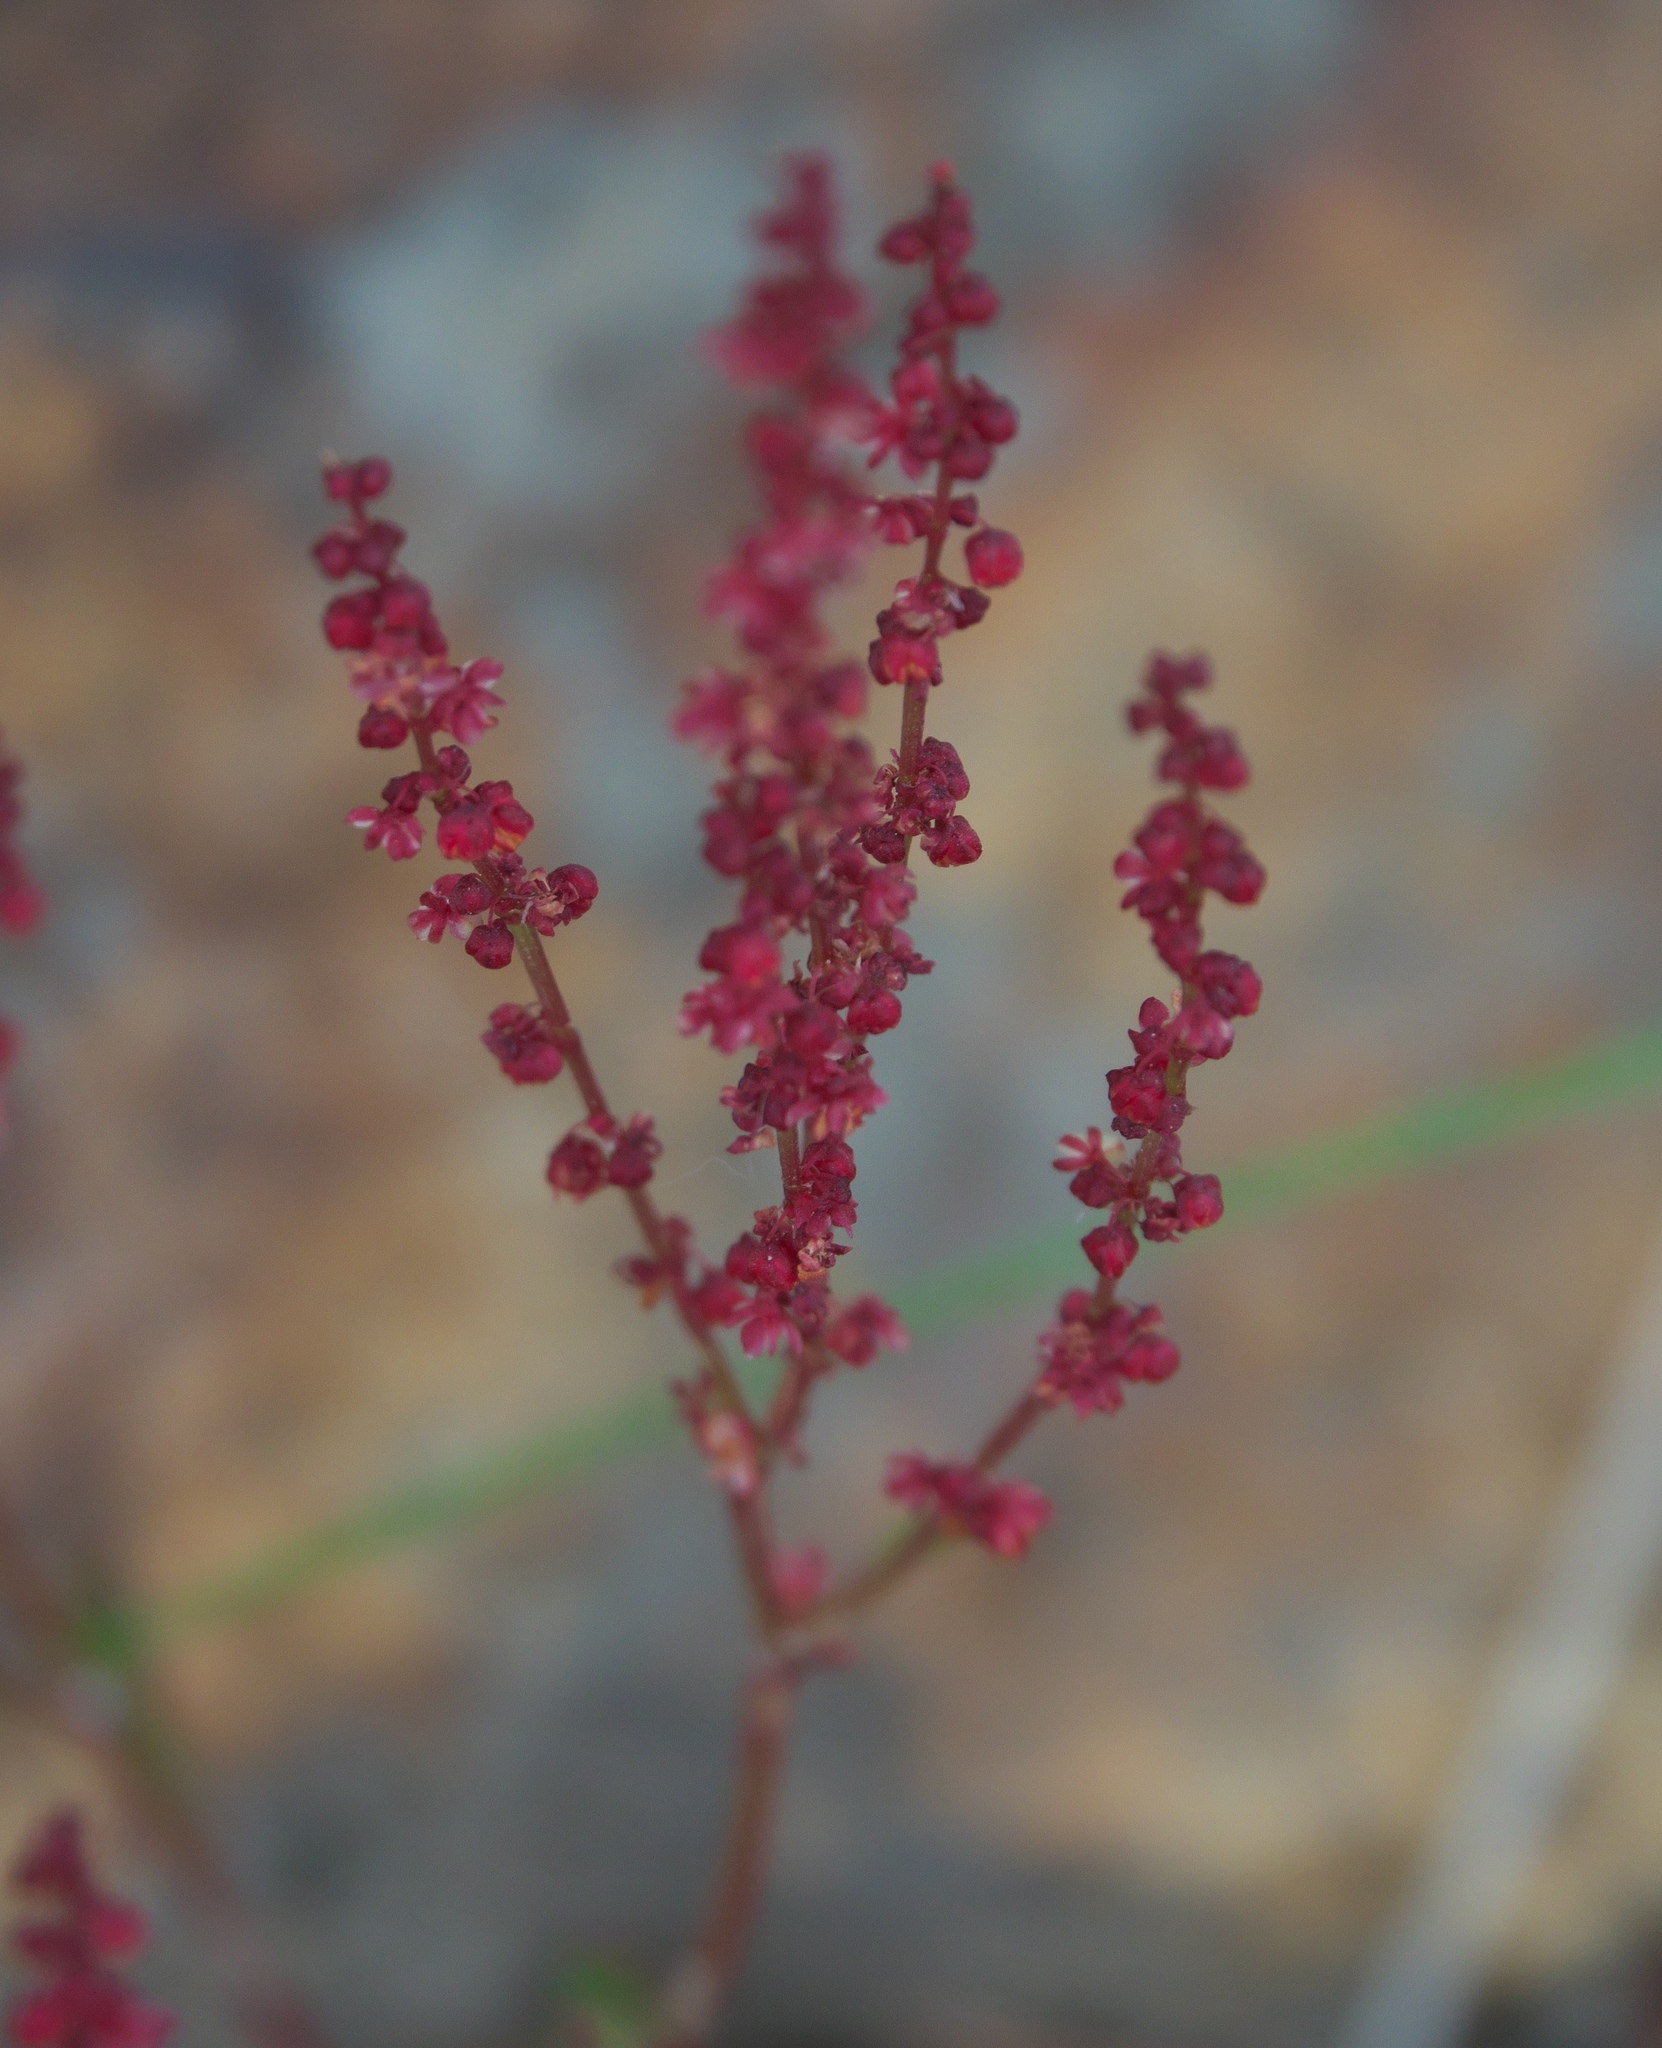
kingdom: Plantae
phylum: Tracheophyta
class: Magnoliopsida
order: Caryophyllales
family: Polygonaceae
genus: Rumex
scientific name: Rumex acetosella
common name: Common sheep sorrel
